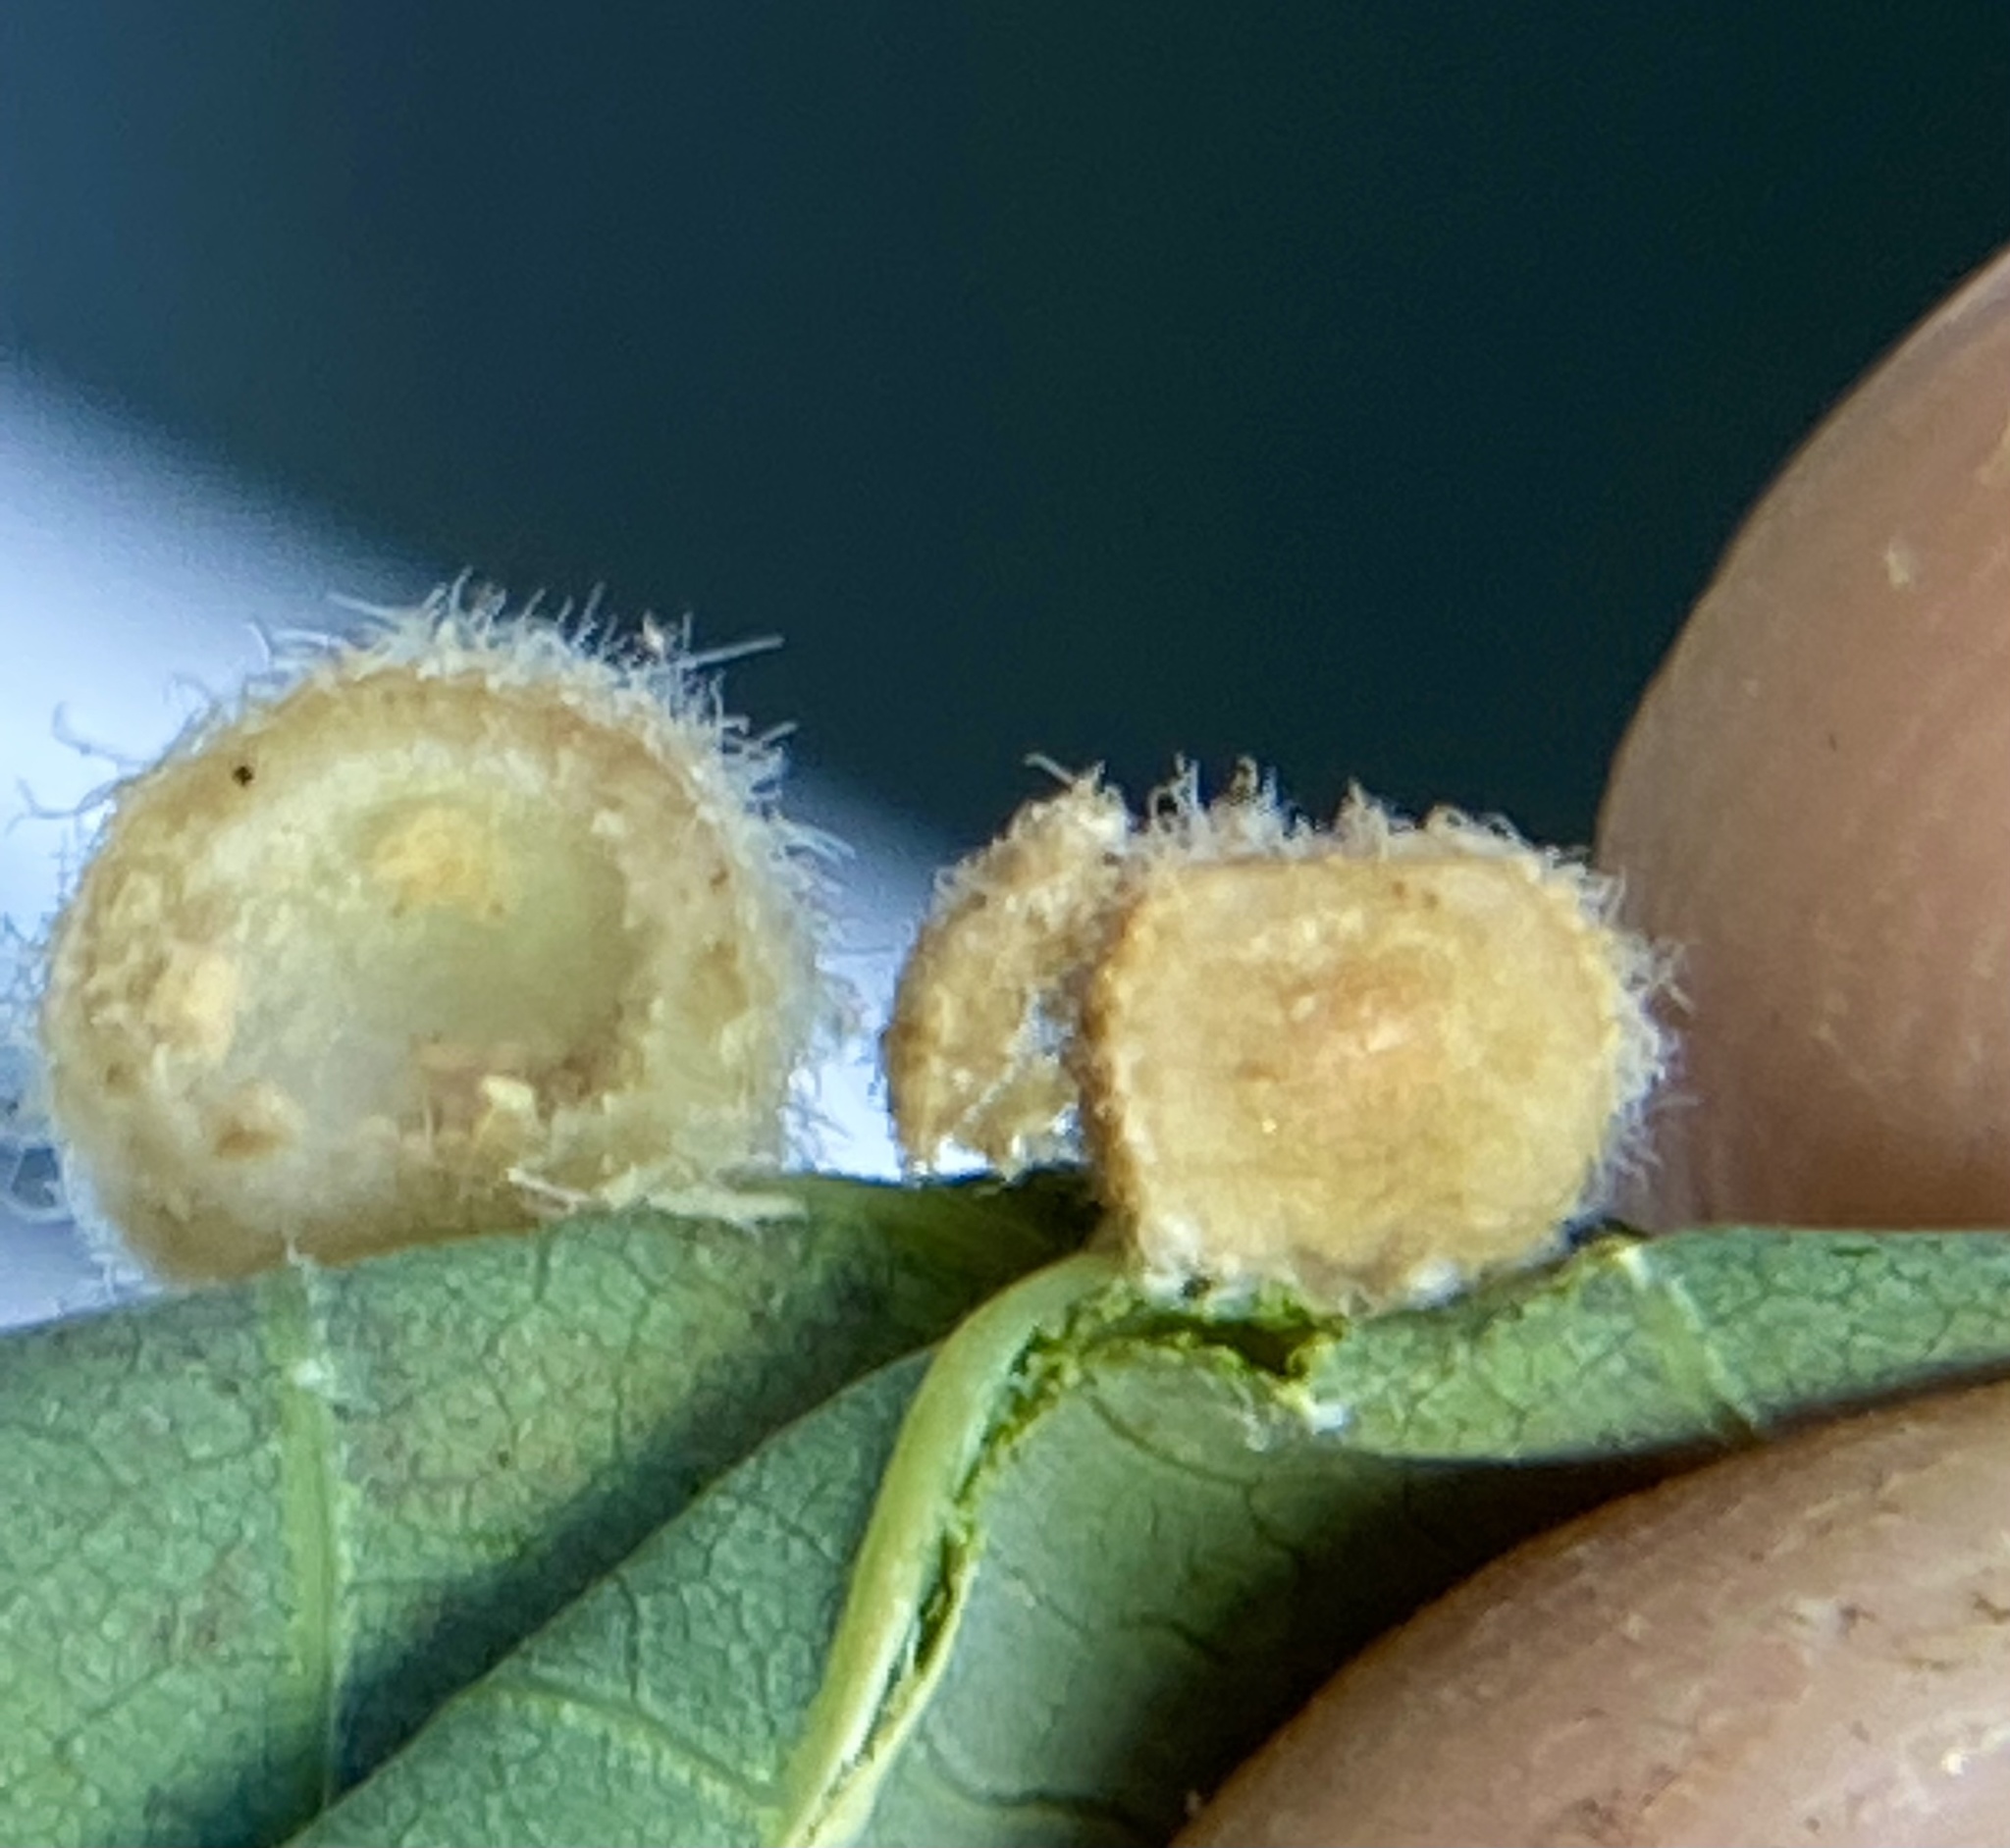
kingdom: Animalia
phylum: Arthropoda
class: Insecta
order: Hymenoptera
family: Cynipidae
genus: Philonix
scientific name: Philonix fulvicollis
